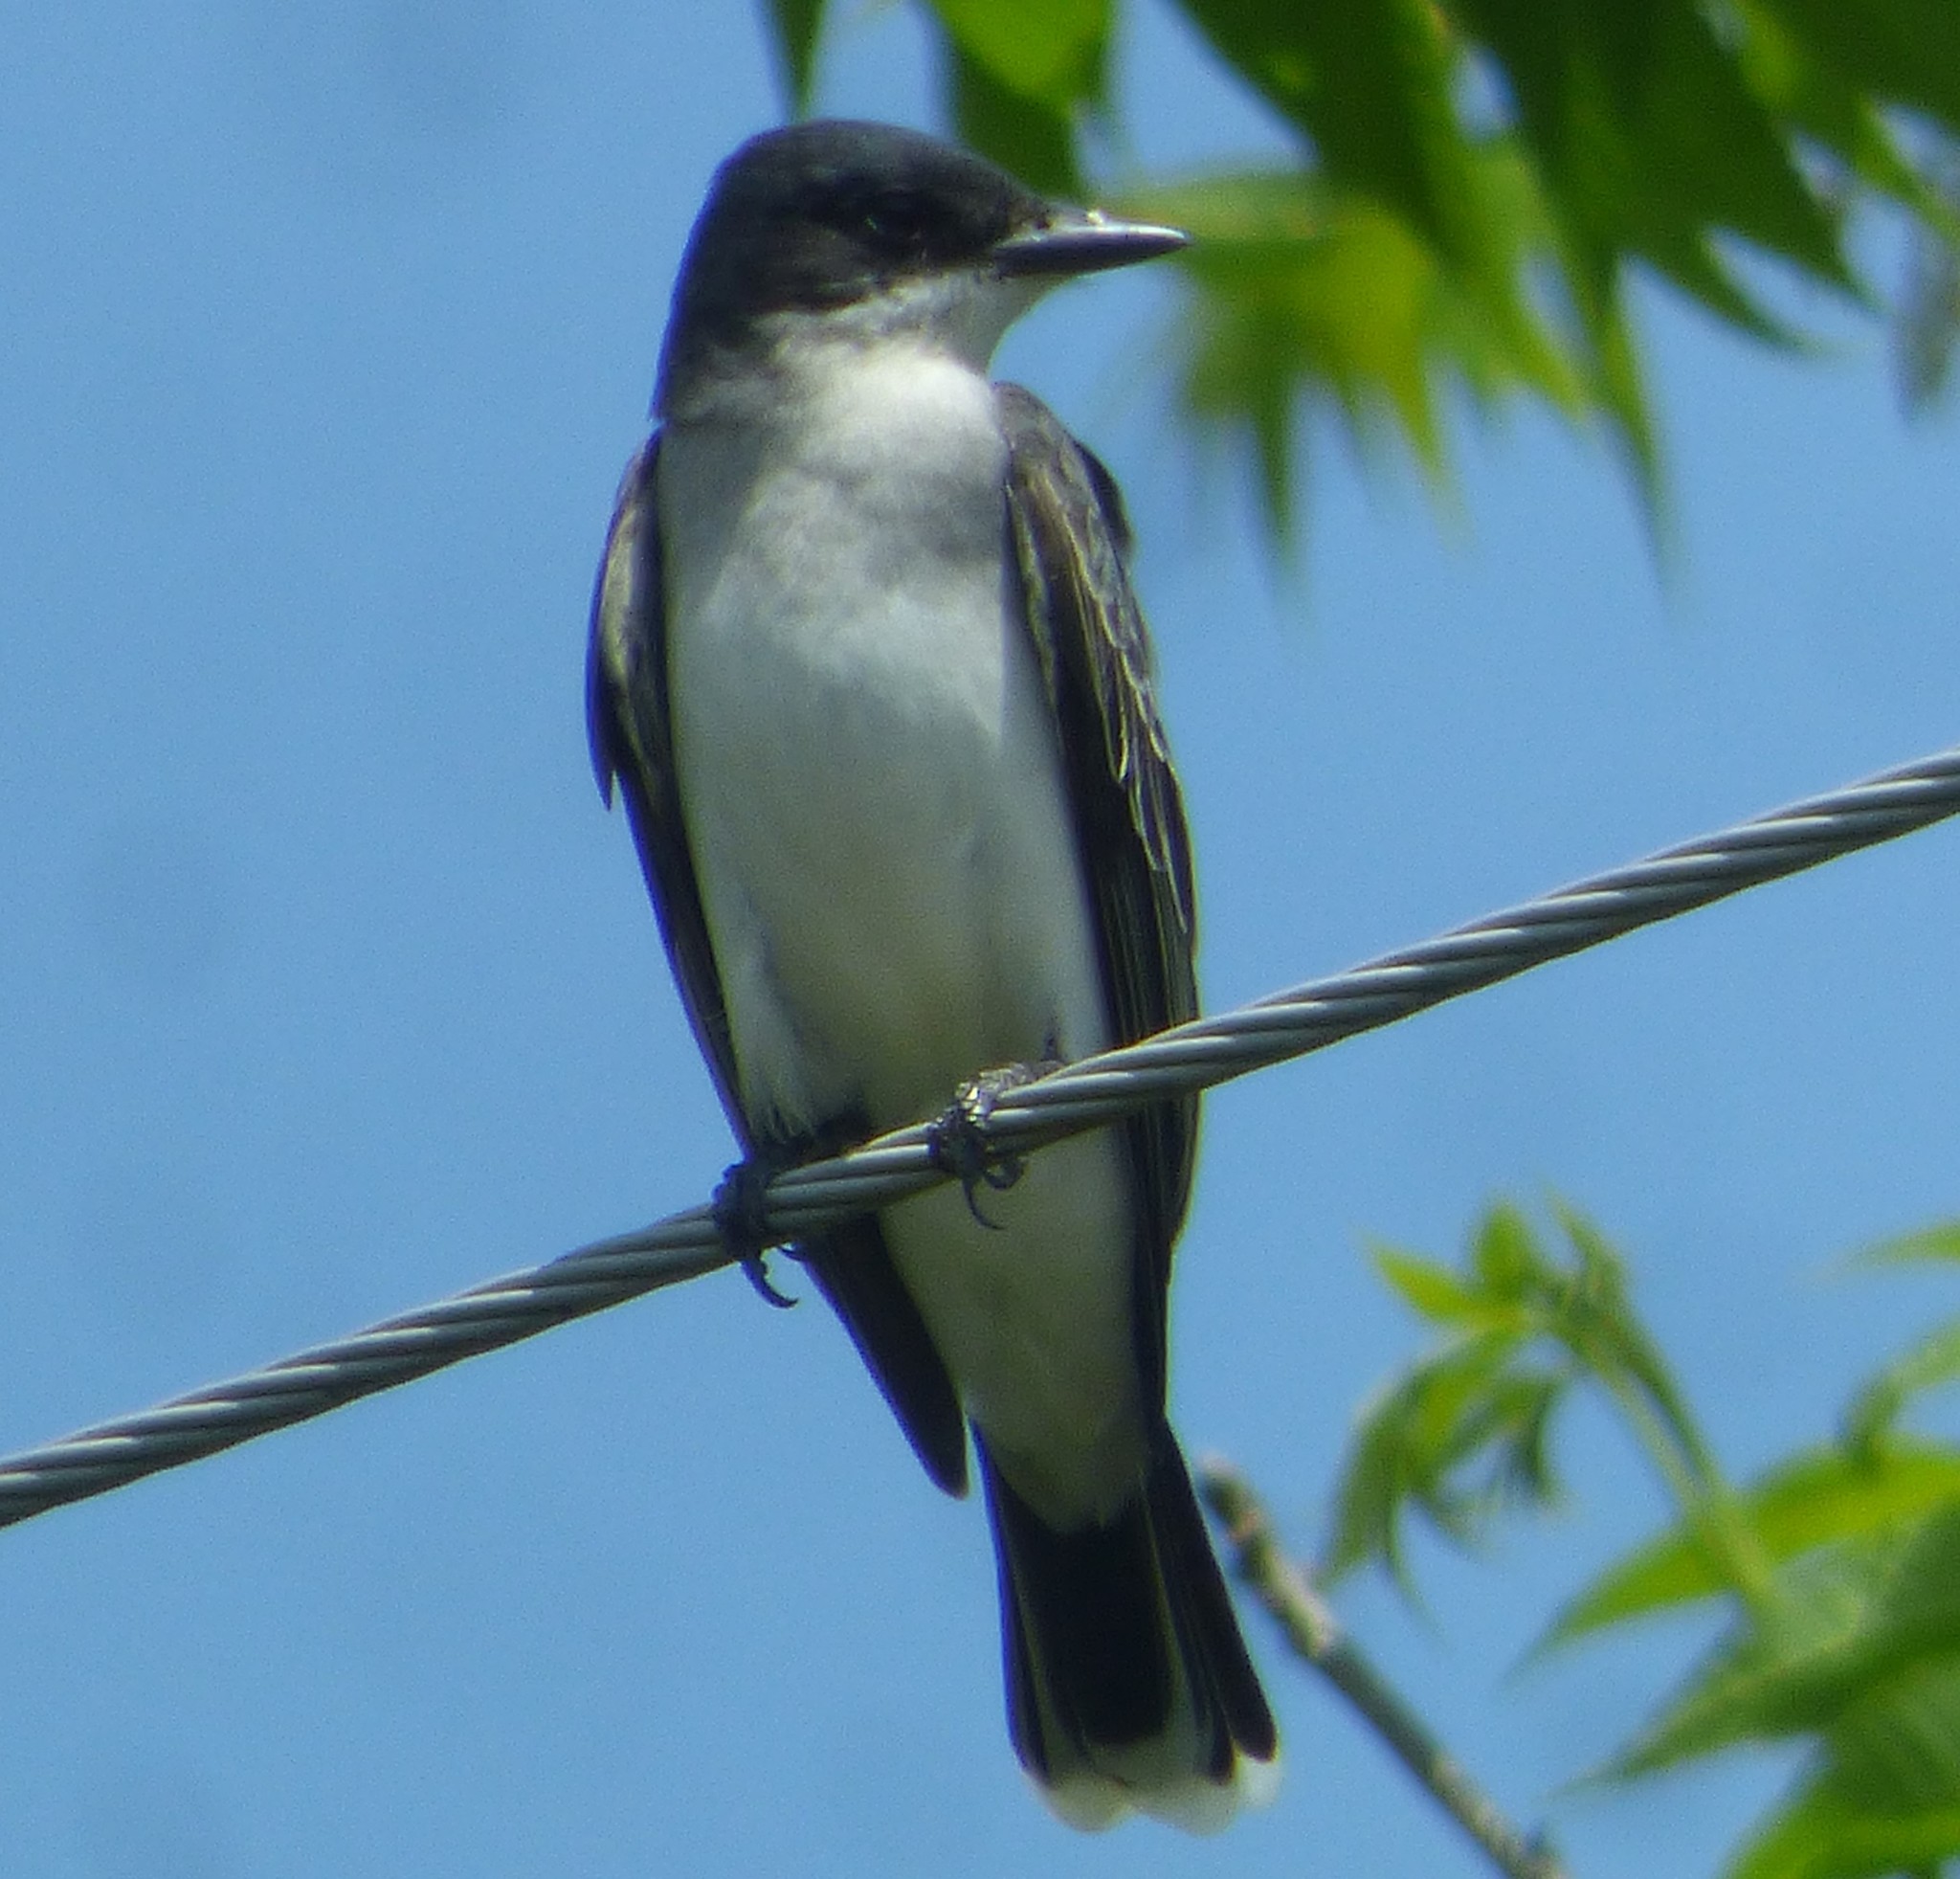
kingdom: Animalia
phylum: Chordata
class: Aves
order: Passeriformes
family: Tyrannidae
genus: Tyrannus
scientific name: Tyrannus tyrannus
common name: Eastern kingbird
